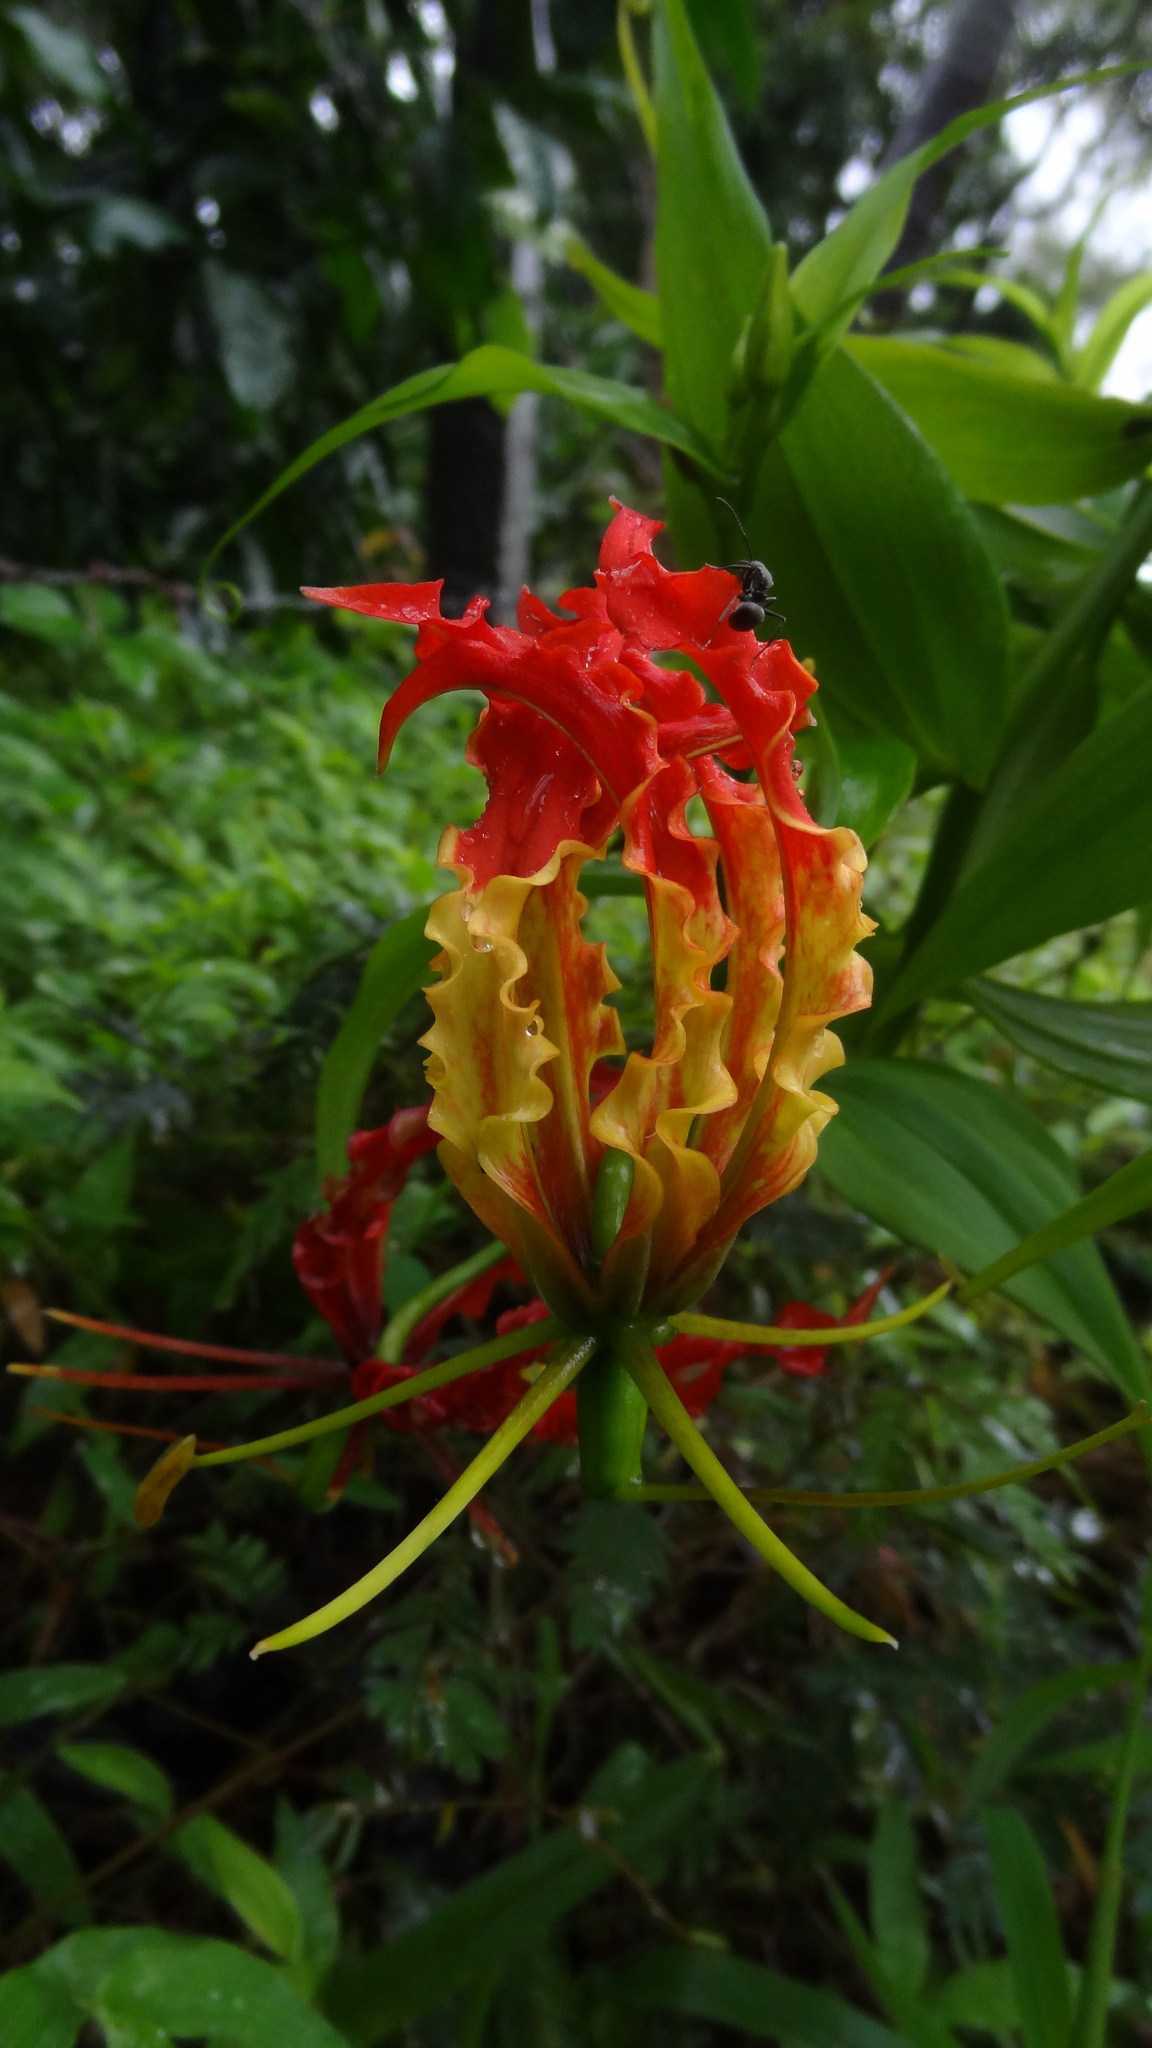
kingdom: Plantae
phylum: Tracheophyta
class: Liliopsida
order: Liliales
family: Colchicaceae
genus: Gloriosa
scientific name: Gloriosa superba
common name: Flame lily
